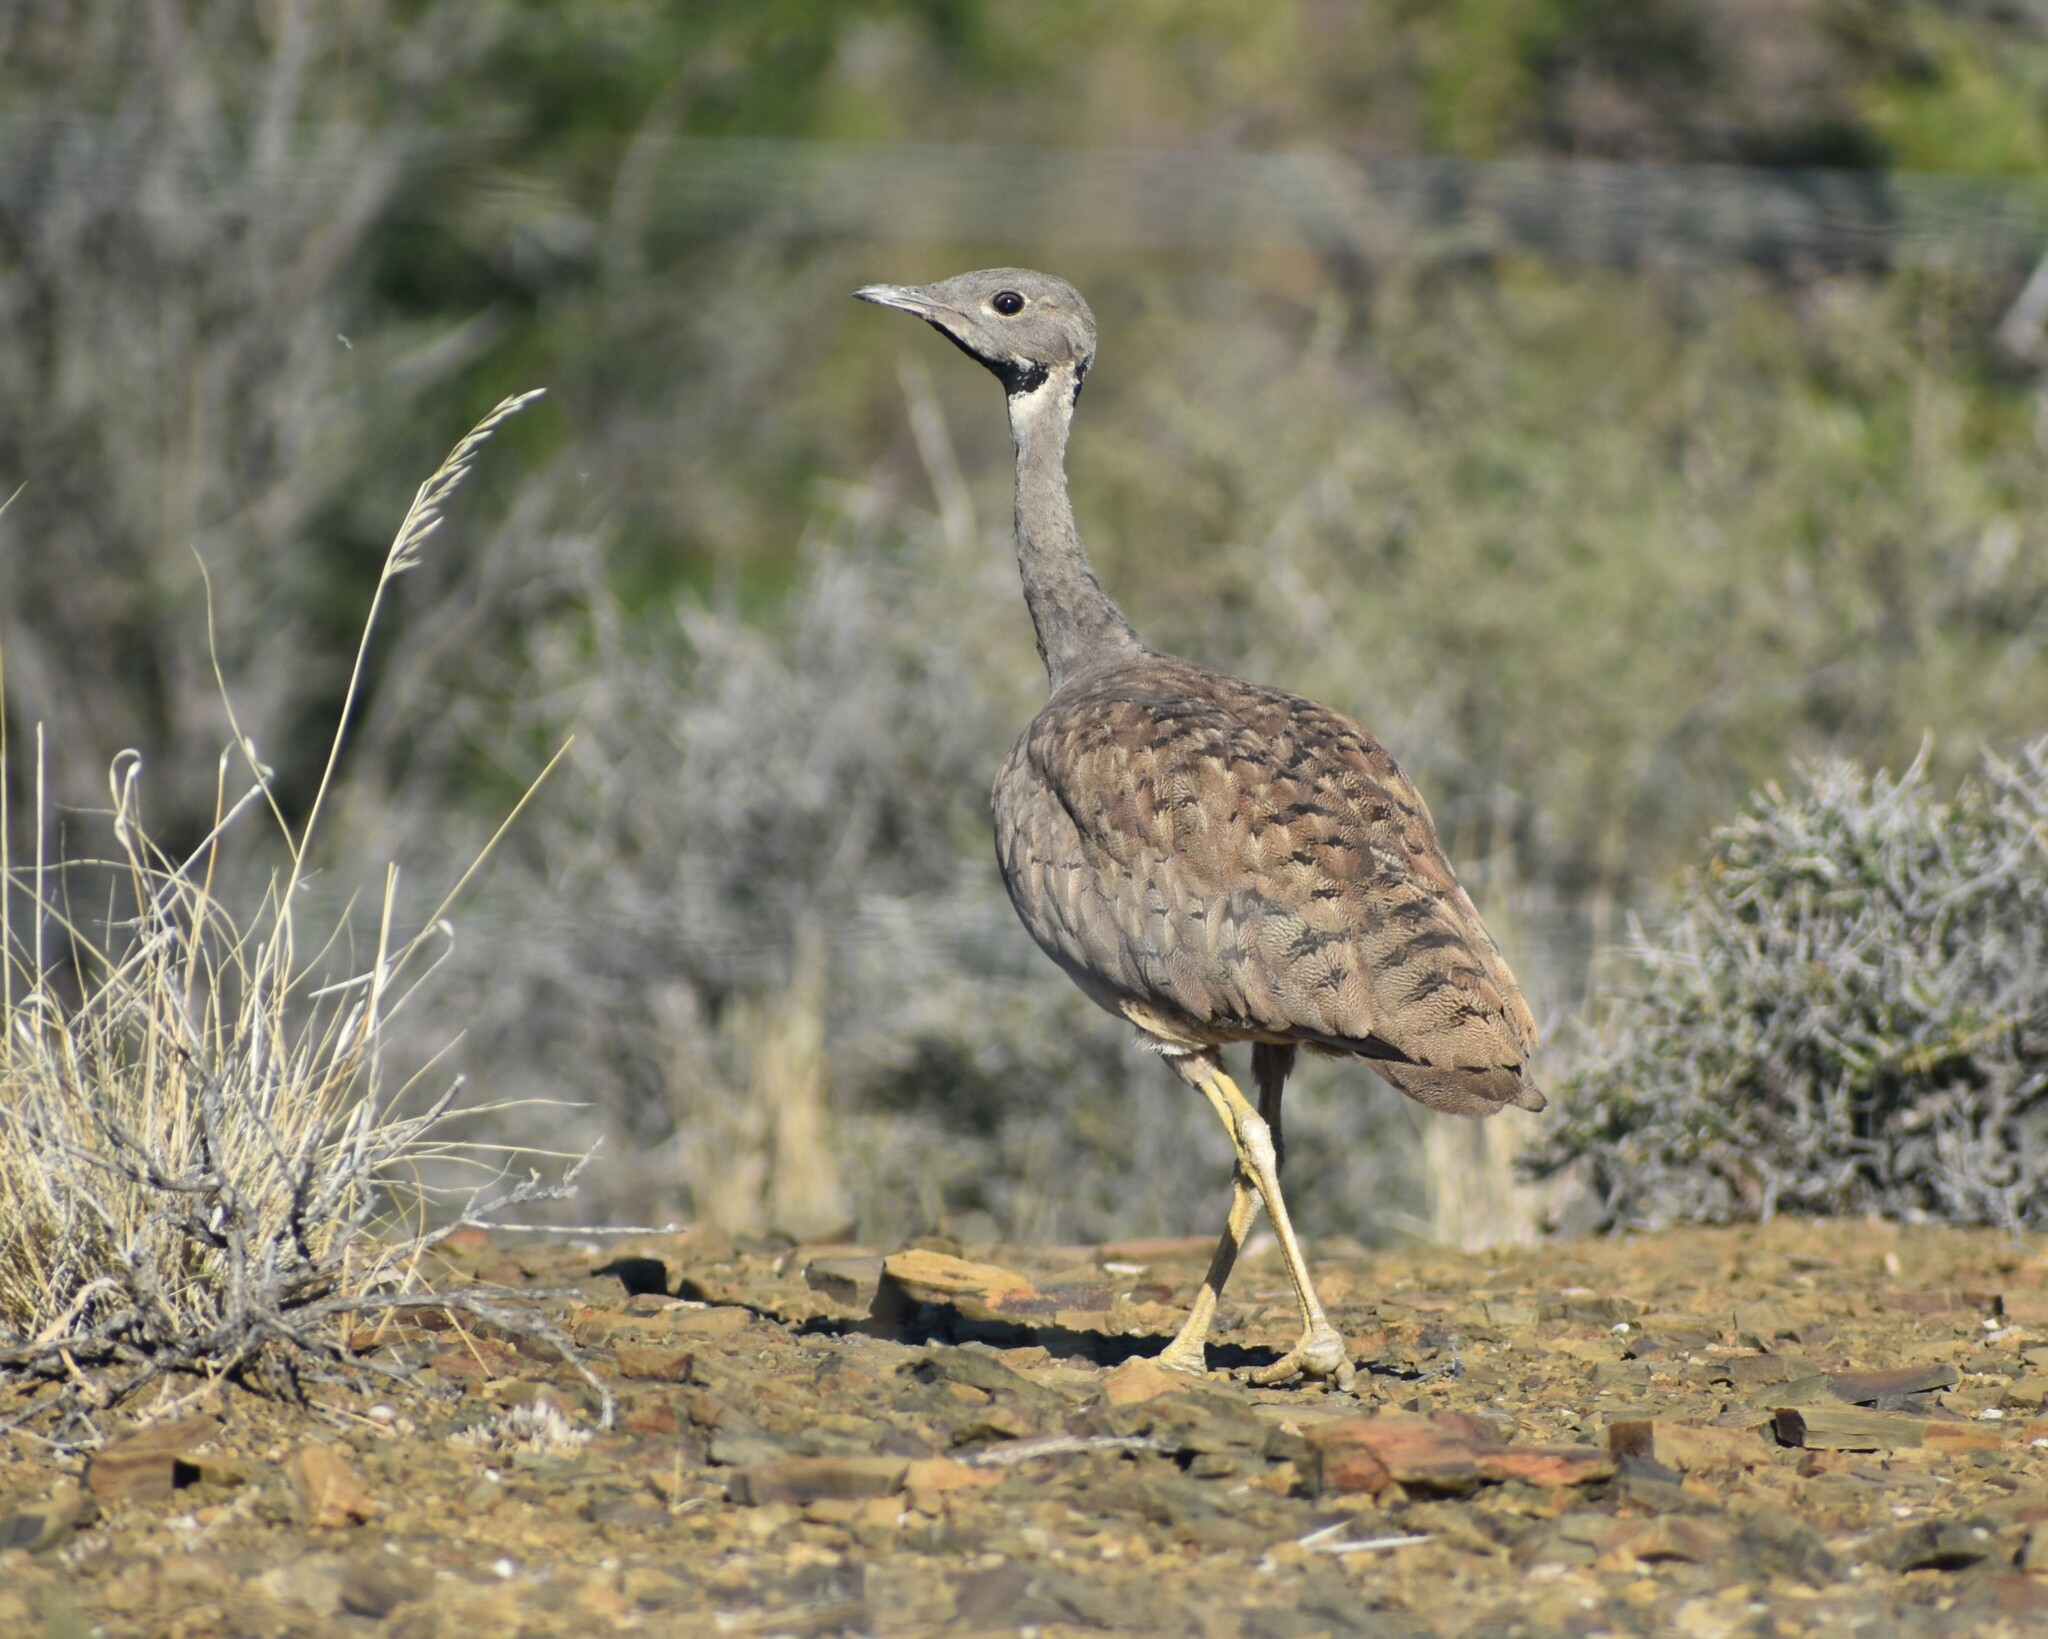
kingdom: Animalia
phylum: Chordata
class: Aves
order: Otidiformes
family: Otididae
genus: Eupodotis
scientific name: Eupodotis vigorsii
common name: Karoo korhaan
